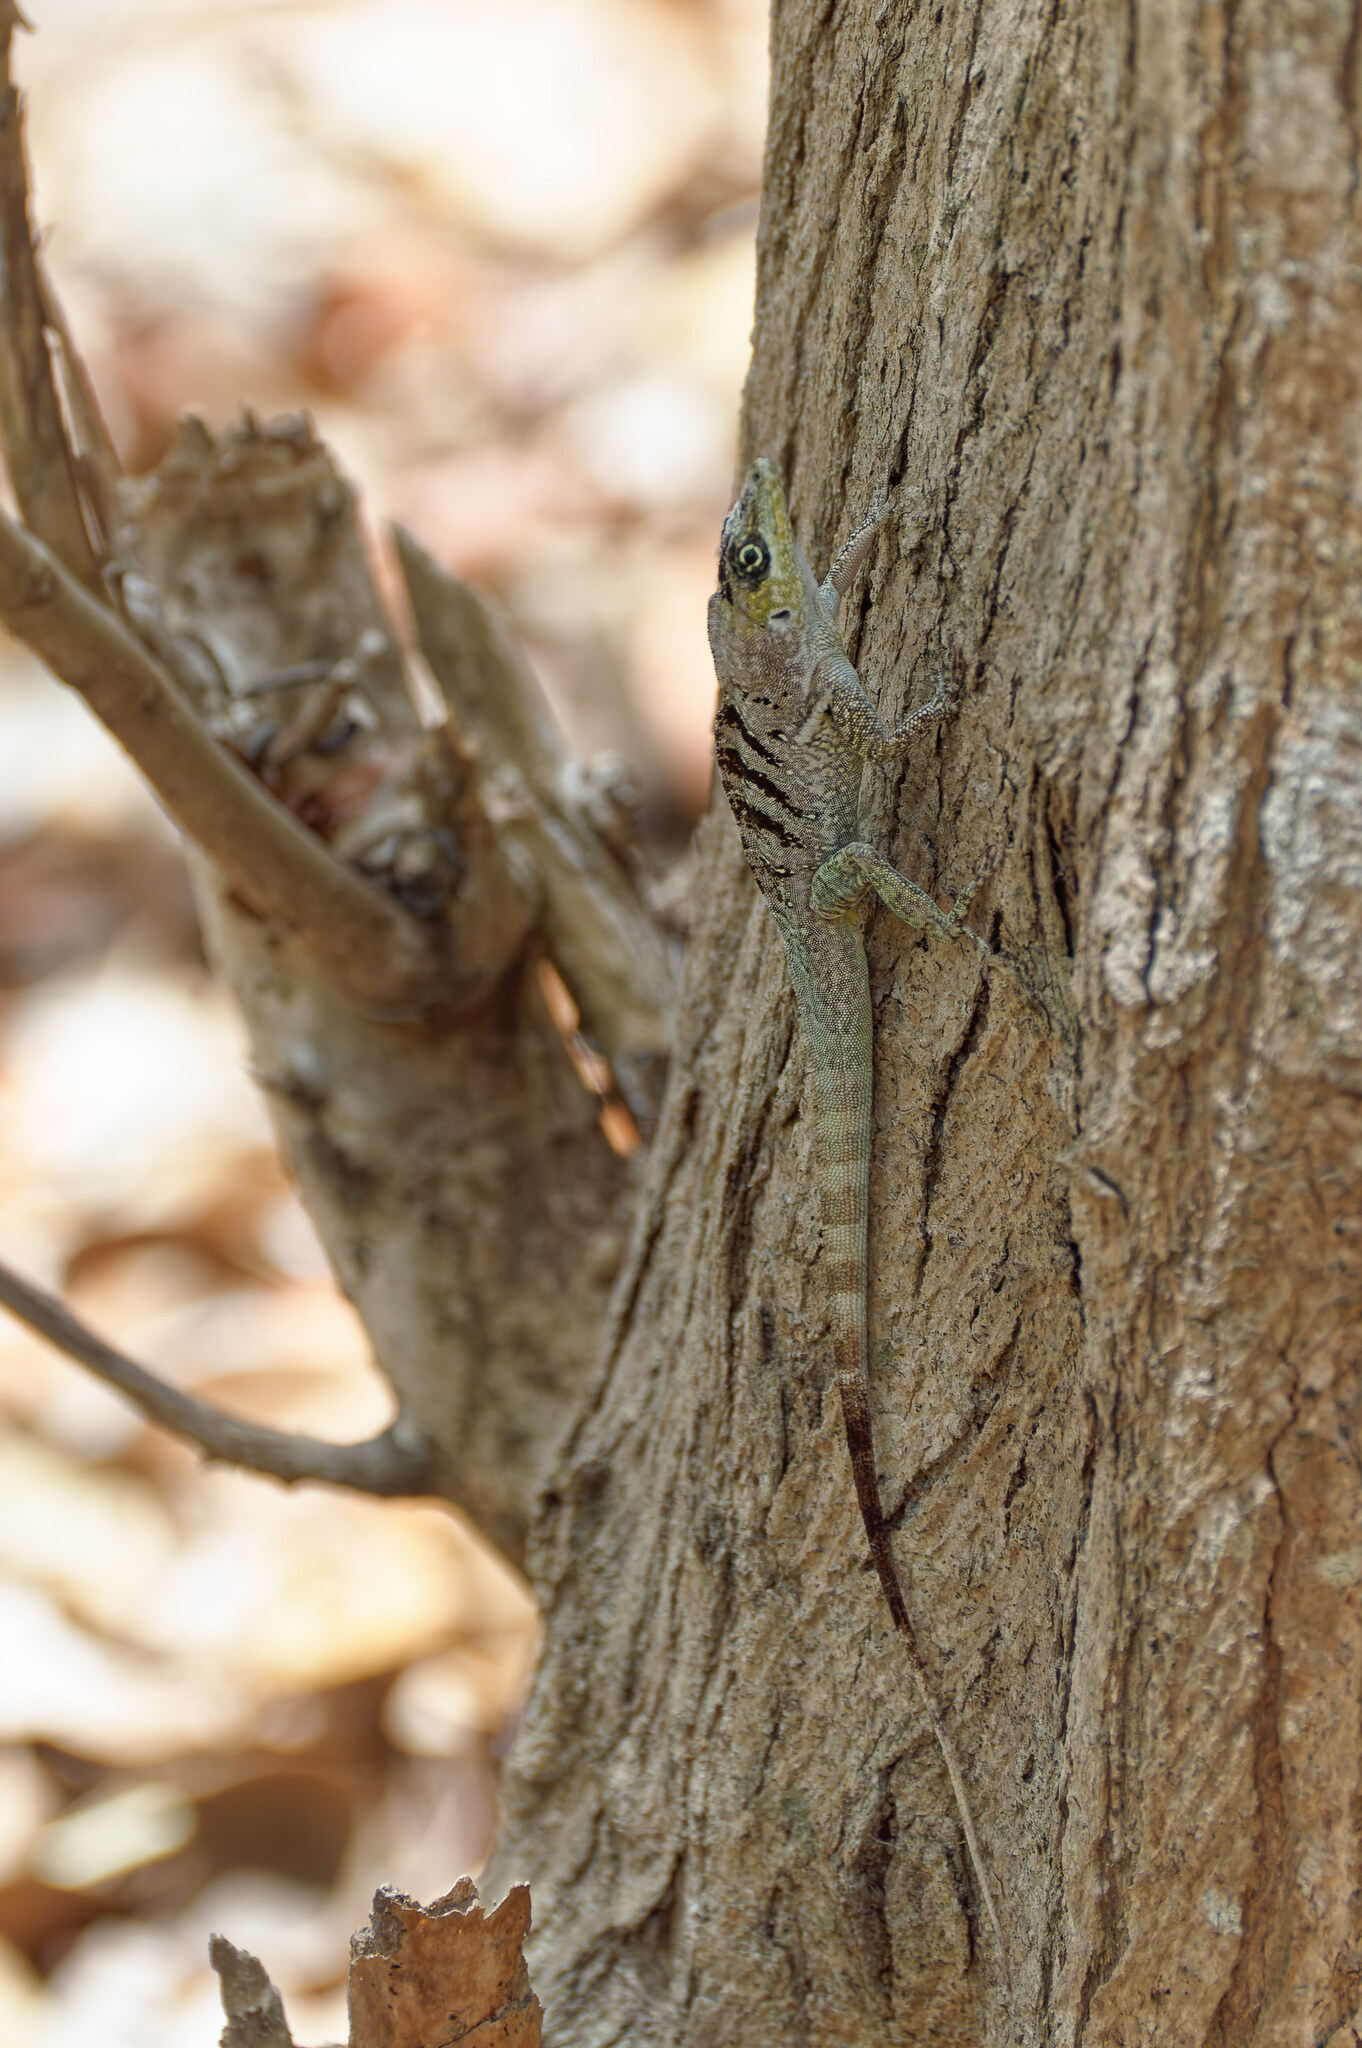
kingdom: Animalia
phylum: Chordata
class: Squamata
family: Dactyloidae
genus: Anolis
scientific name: Anolis roquet
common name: Martinique anole
